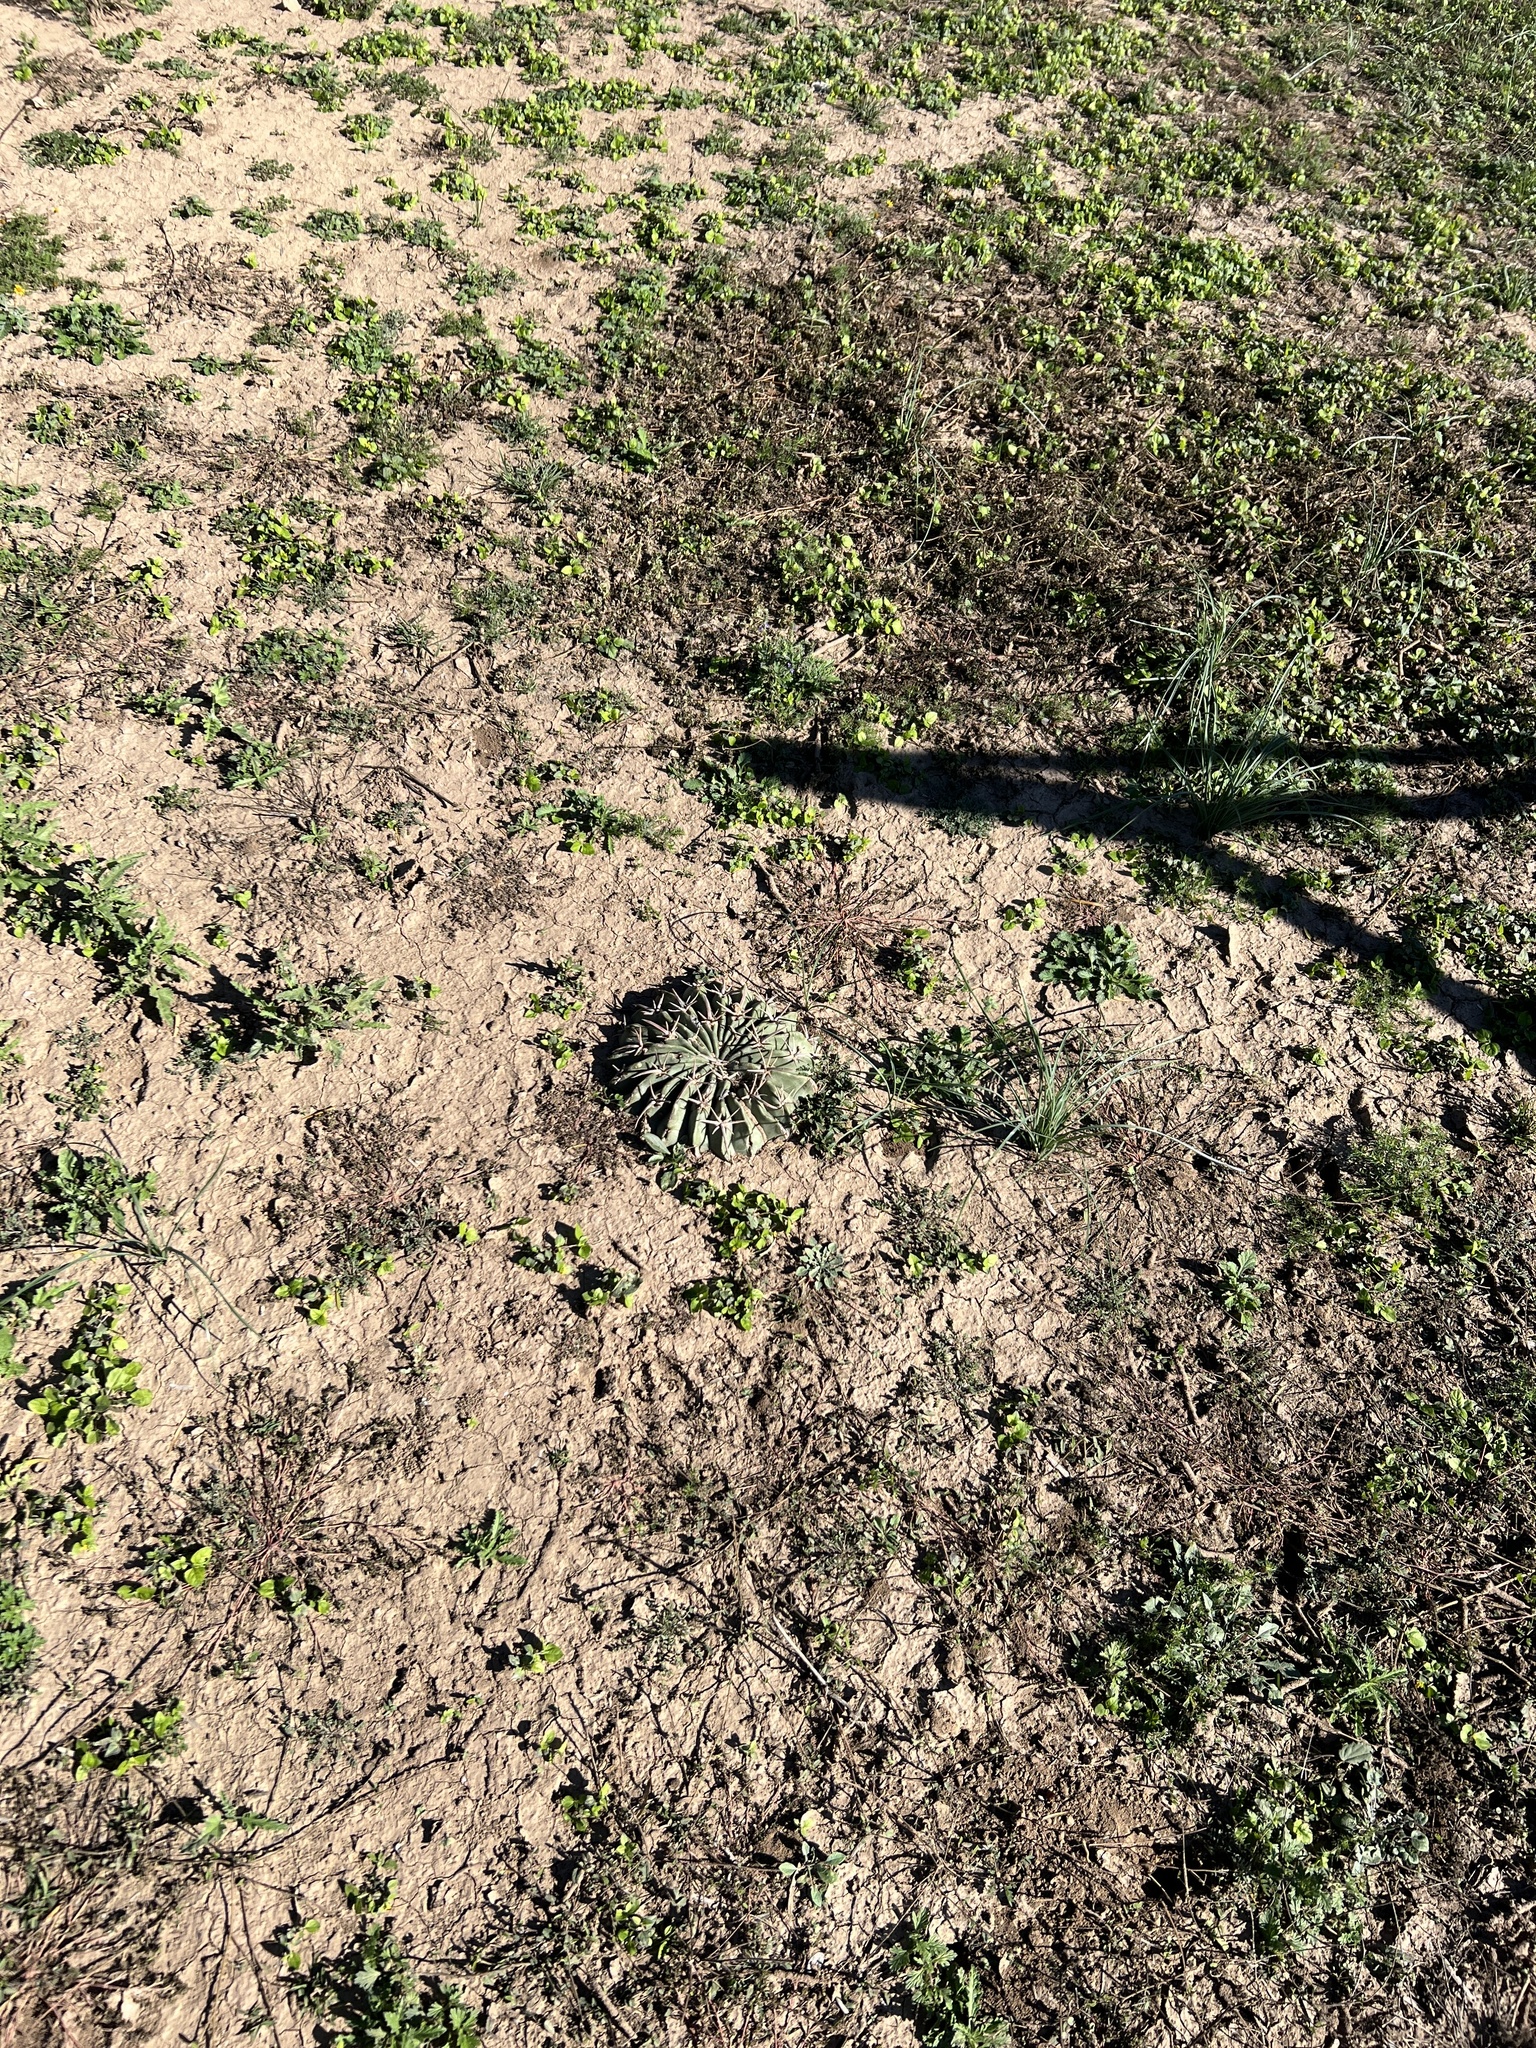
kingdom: Plantae
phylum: Tracheophyta
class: Magnoliopsida
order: Caryophyllales
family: Cactaceae
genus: Echinocactus
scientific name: Echinocactus texensis
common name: Devil's pincushion
